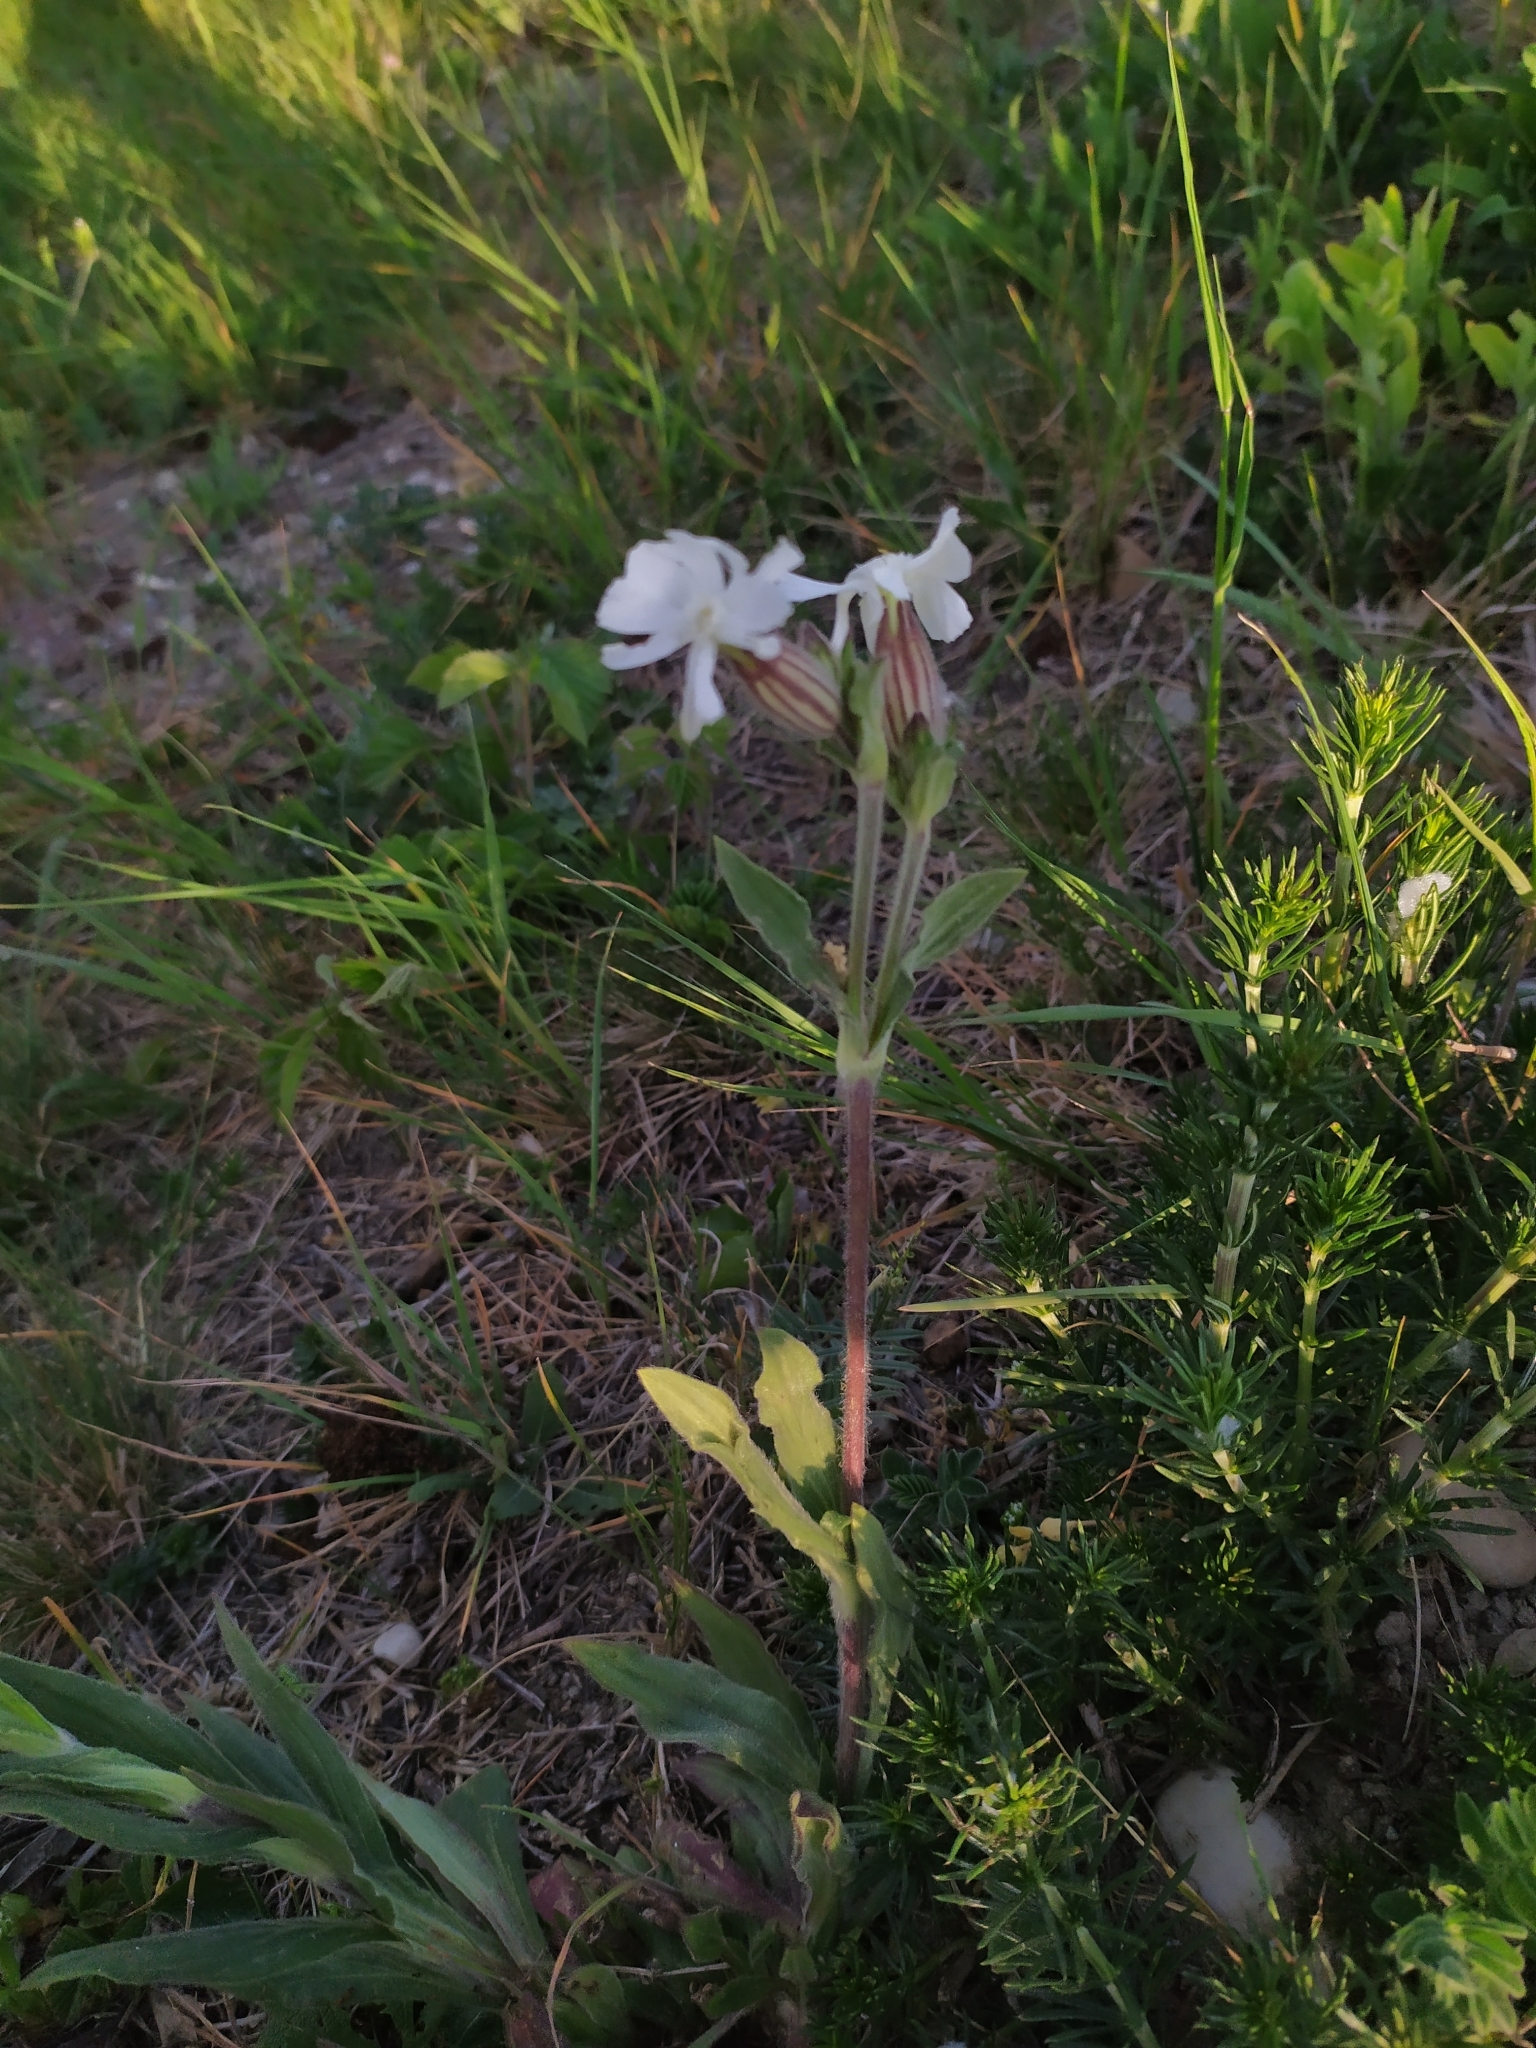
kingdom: Plantae
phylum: Tracheophyta
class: Magnoliopsida
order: Caryophyllales
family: Caryophyllaceae
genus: Silene
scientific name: Silene latifolia
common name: White campion
